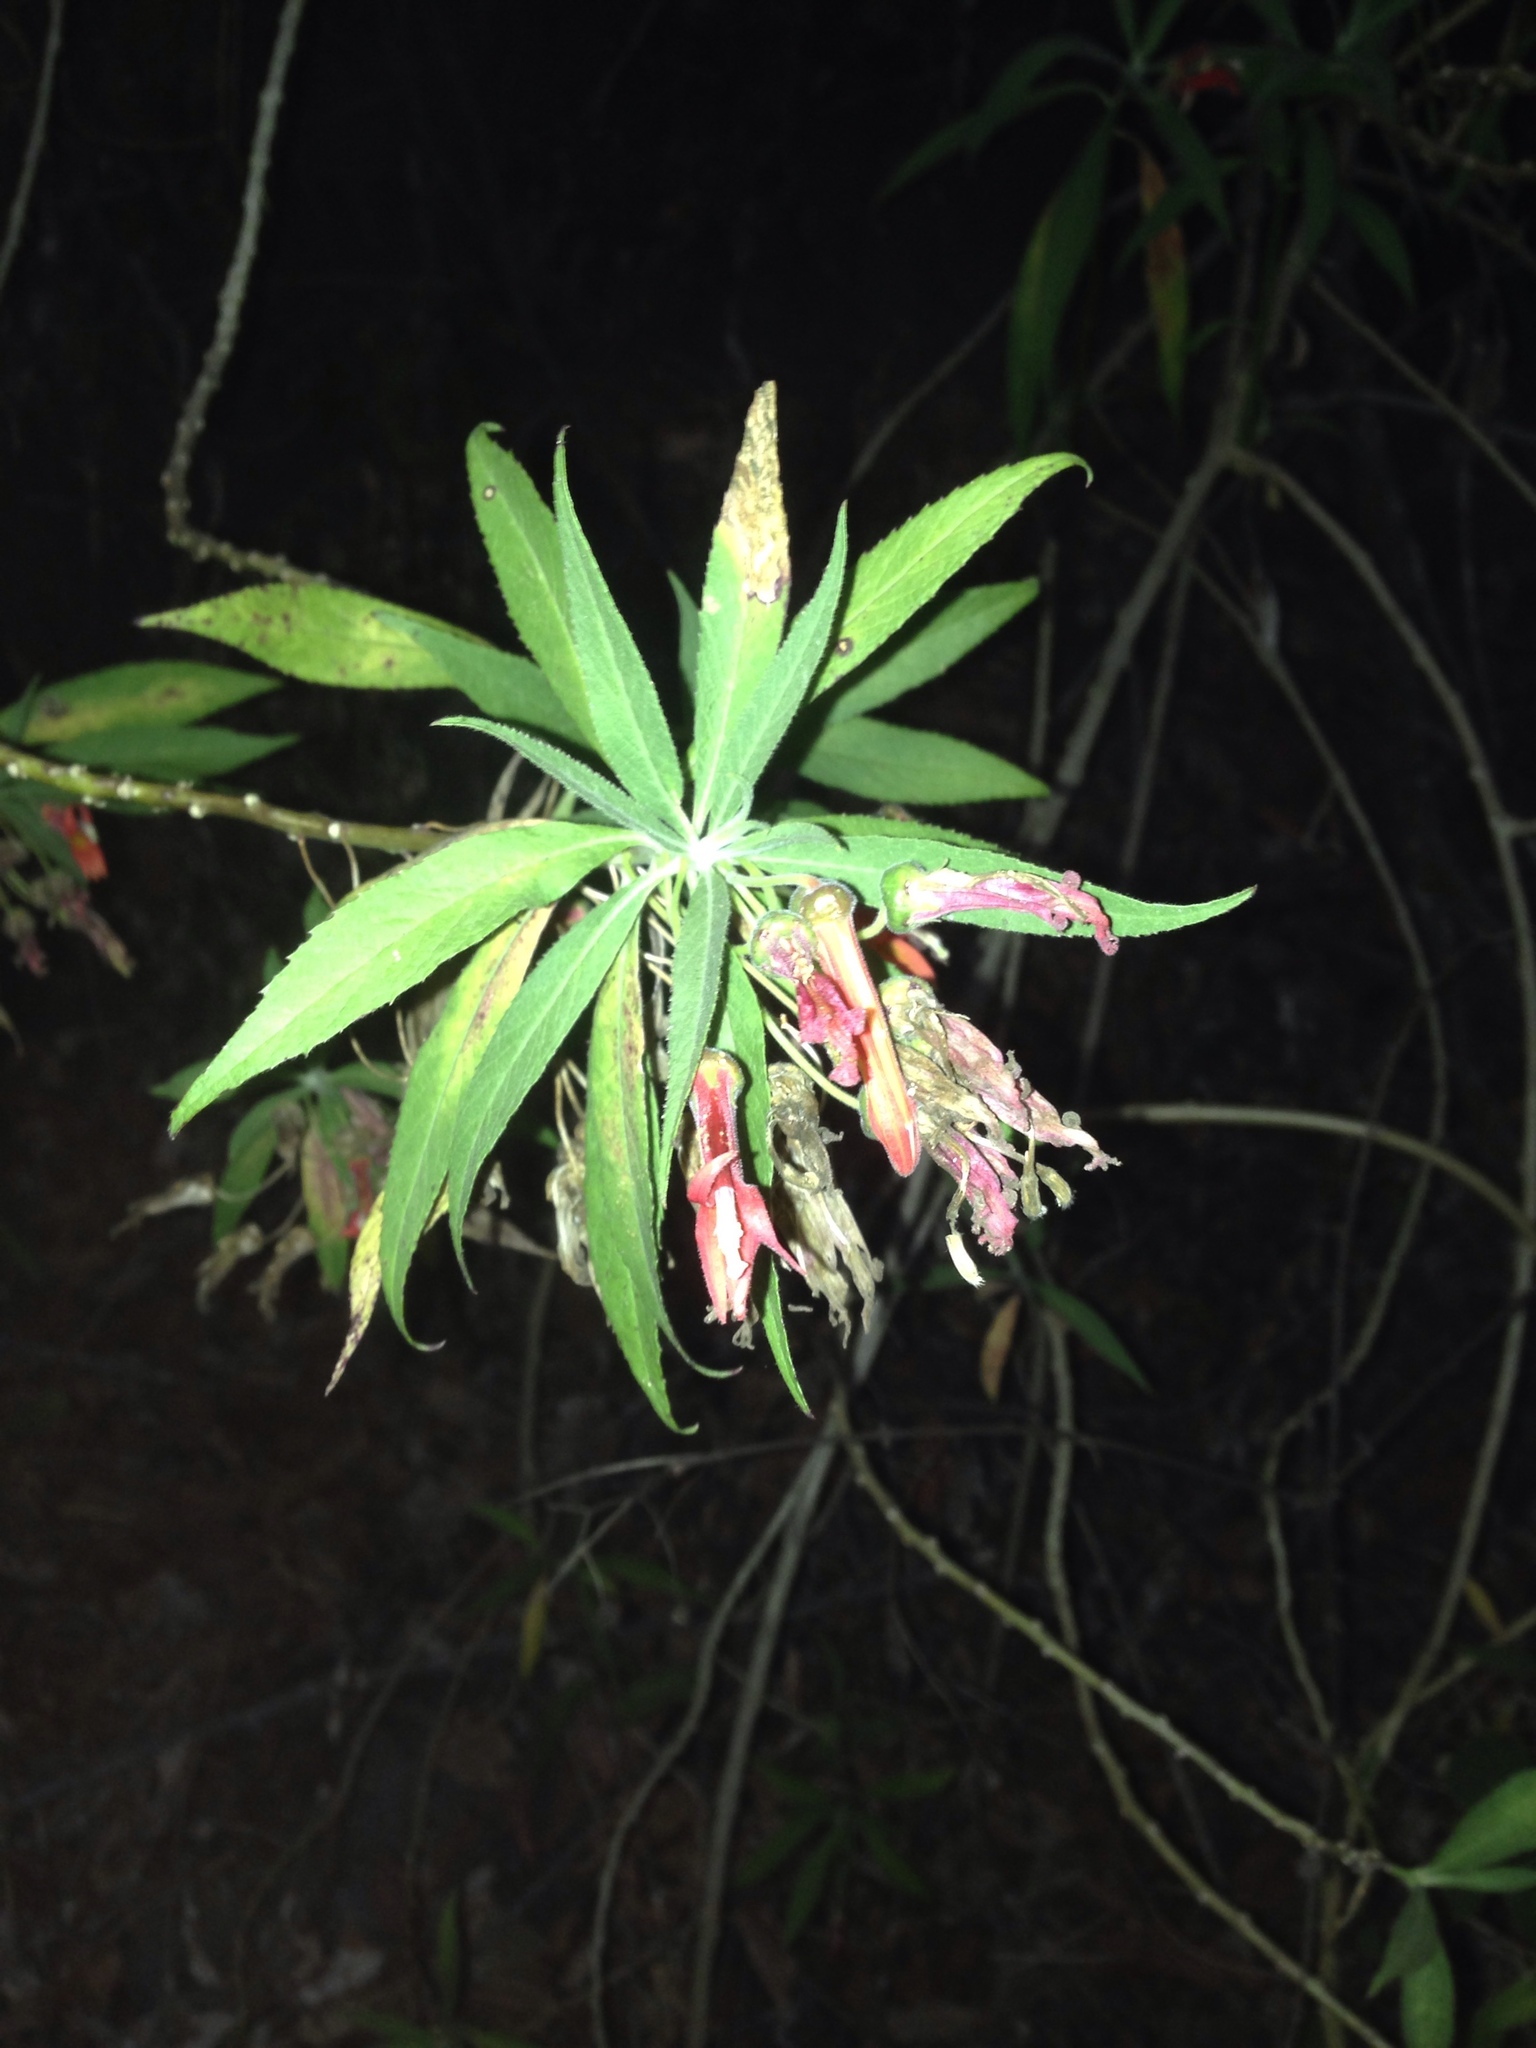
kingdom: Plantae
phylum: Tracheophyta
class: Magnoliopsida
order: Asterales
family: Campanulaceae
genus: Lobelia
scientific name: Lobelia laxiflora
